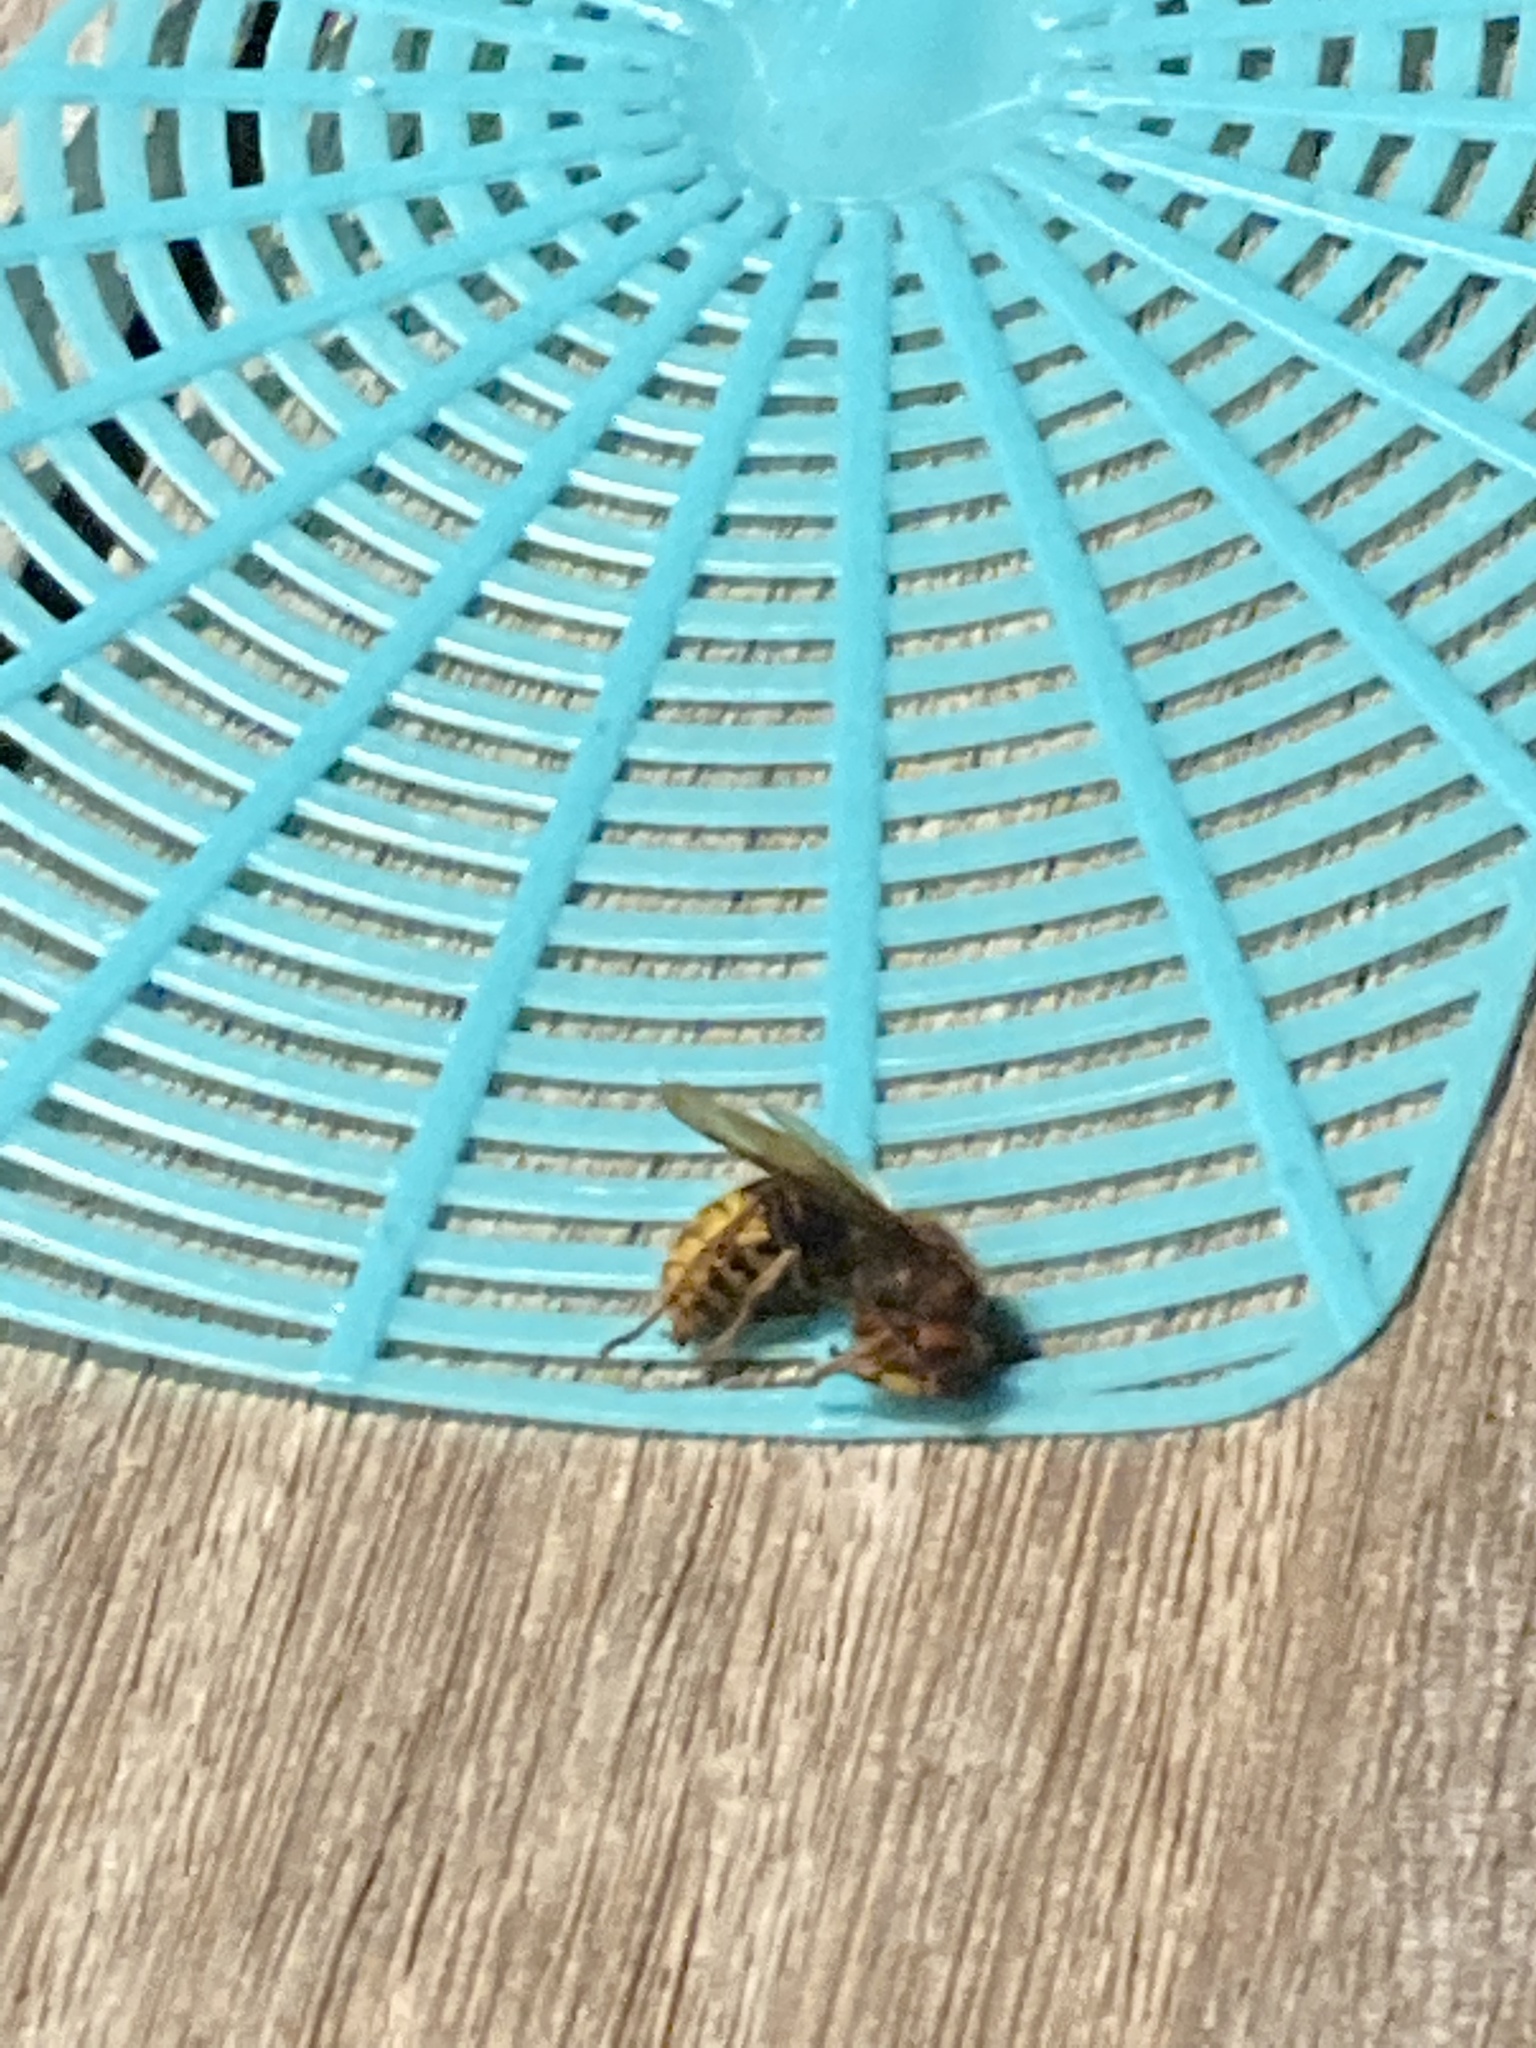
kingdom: Animalia
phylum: Arthropoda
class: Insecta
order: Hymenoptera
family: Vespidae
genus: Vespa
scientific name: Vespa crabro
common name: Hornet
